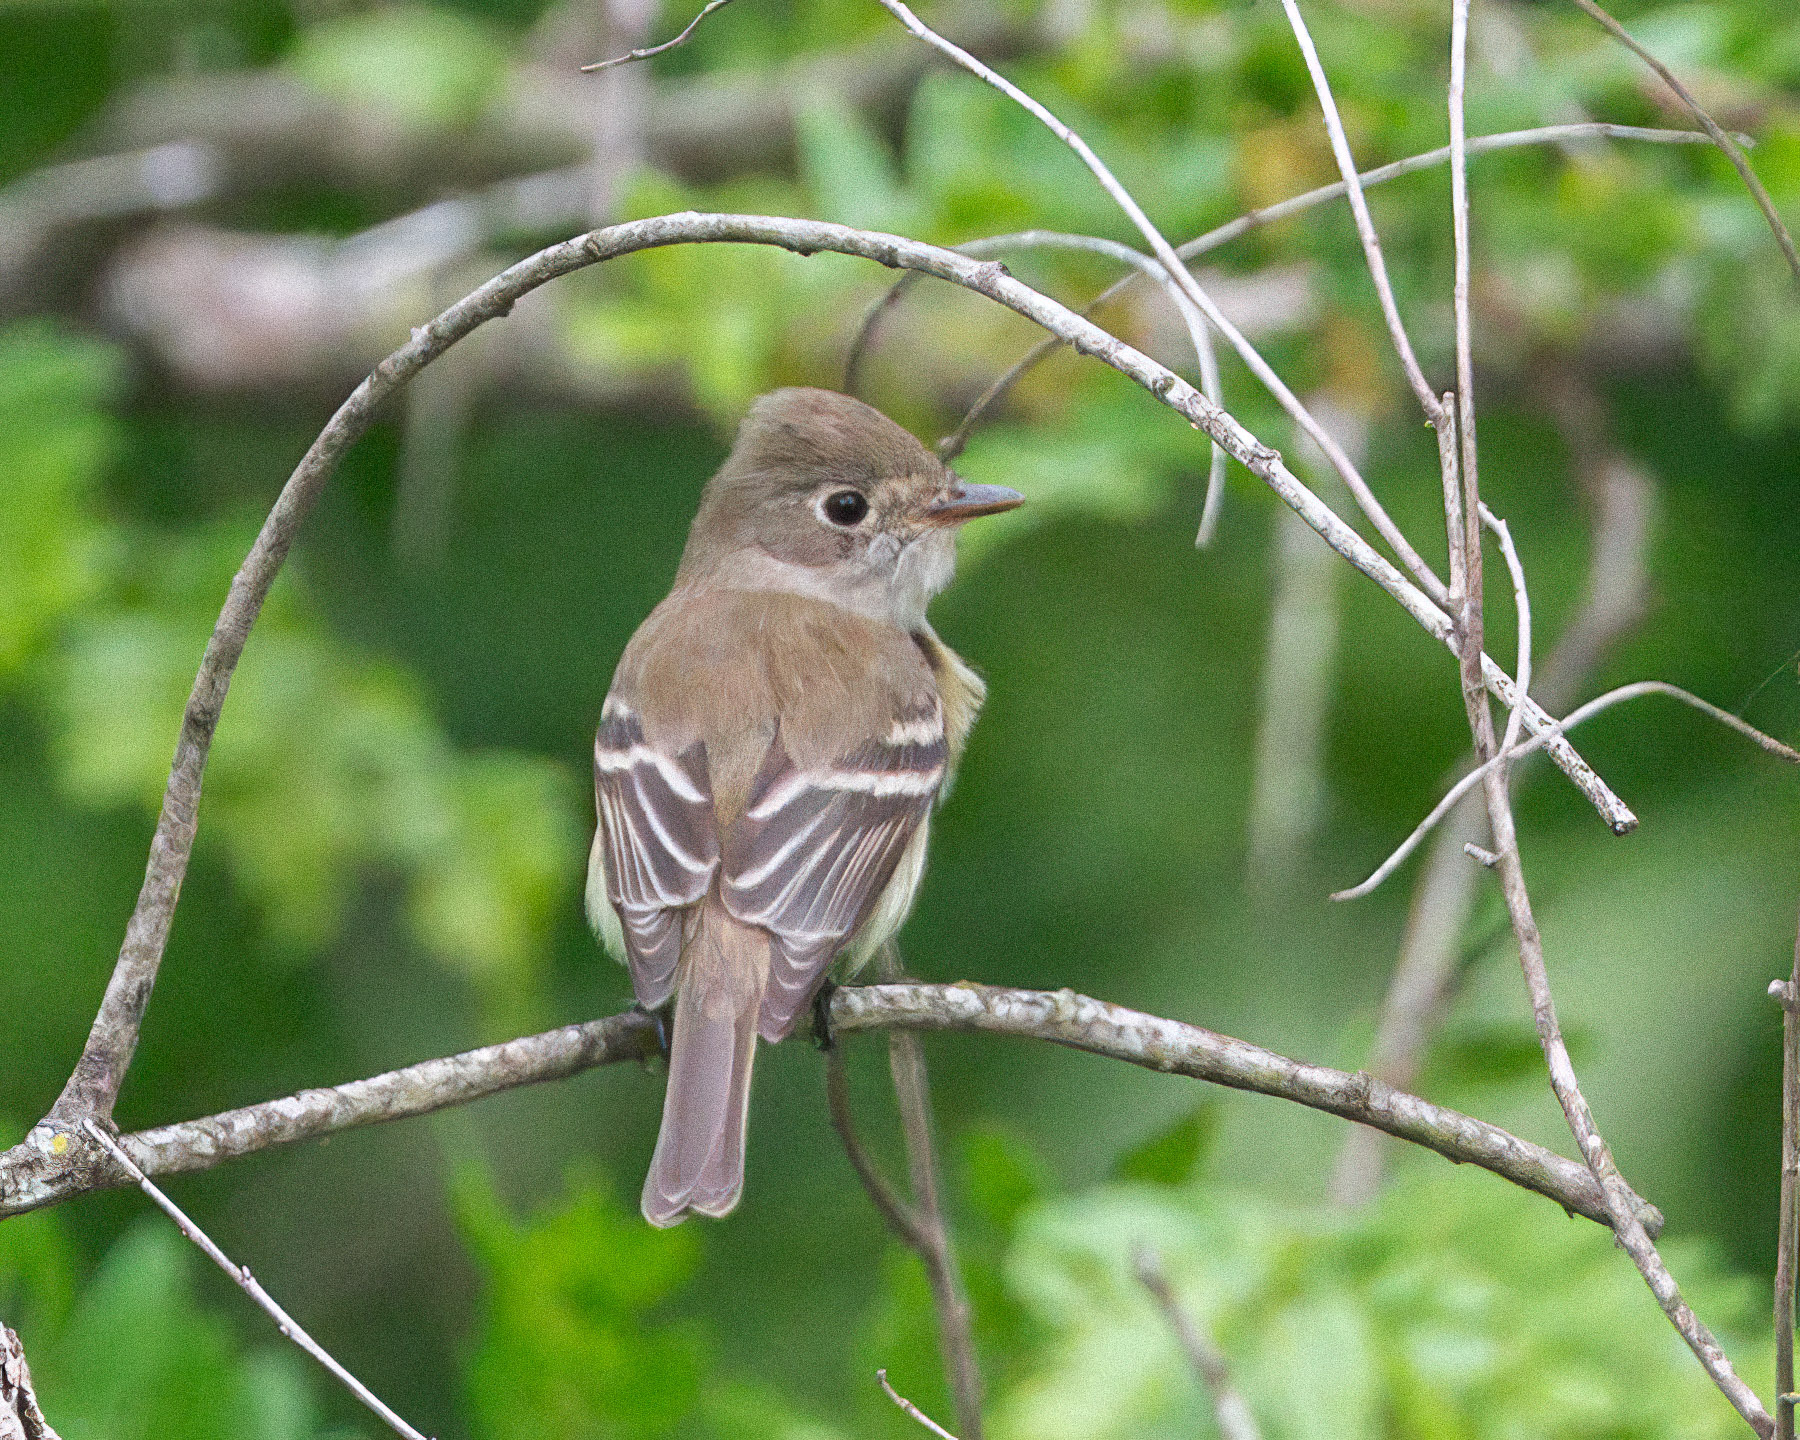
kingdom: Animalia
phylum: Chordata
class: Aves
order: Passeriformes
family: Tyrannidae
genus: Empidonax
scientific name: Empidonax minimus
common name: Least flycatcher
